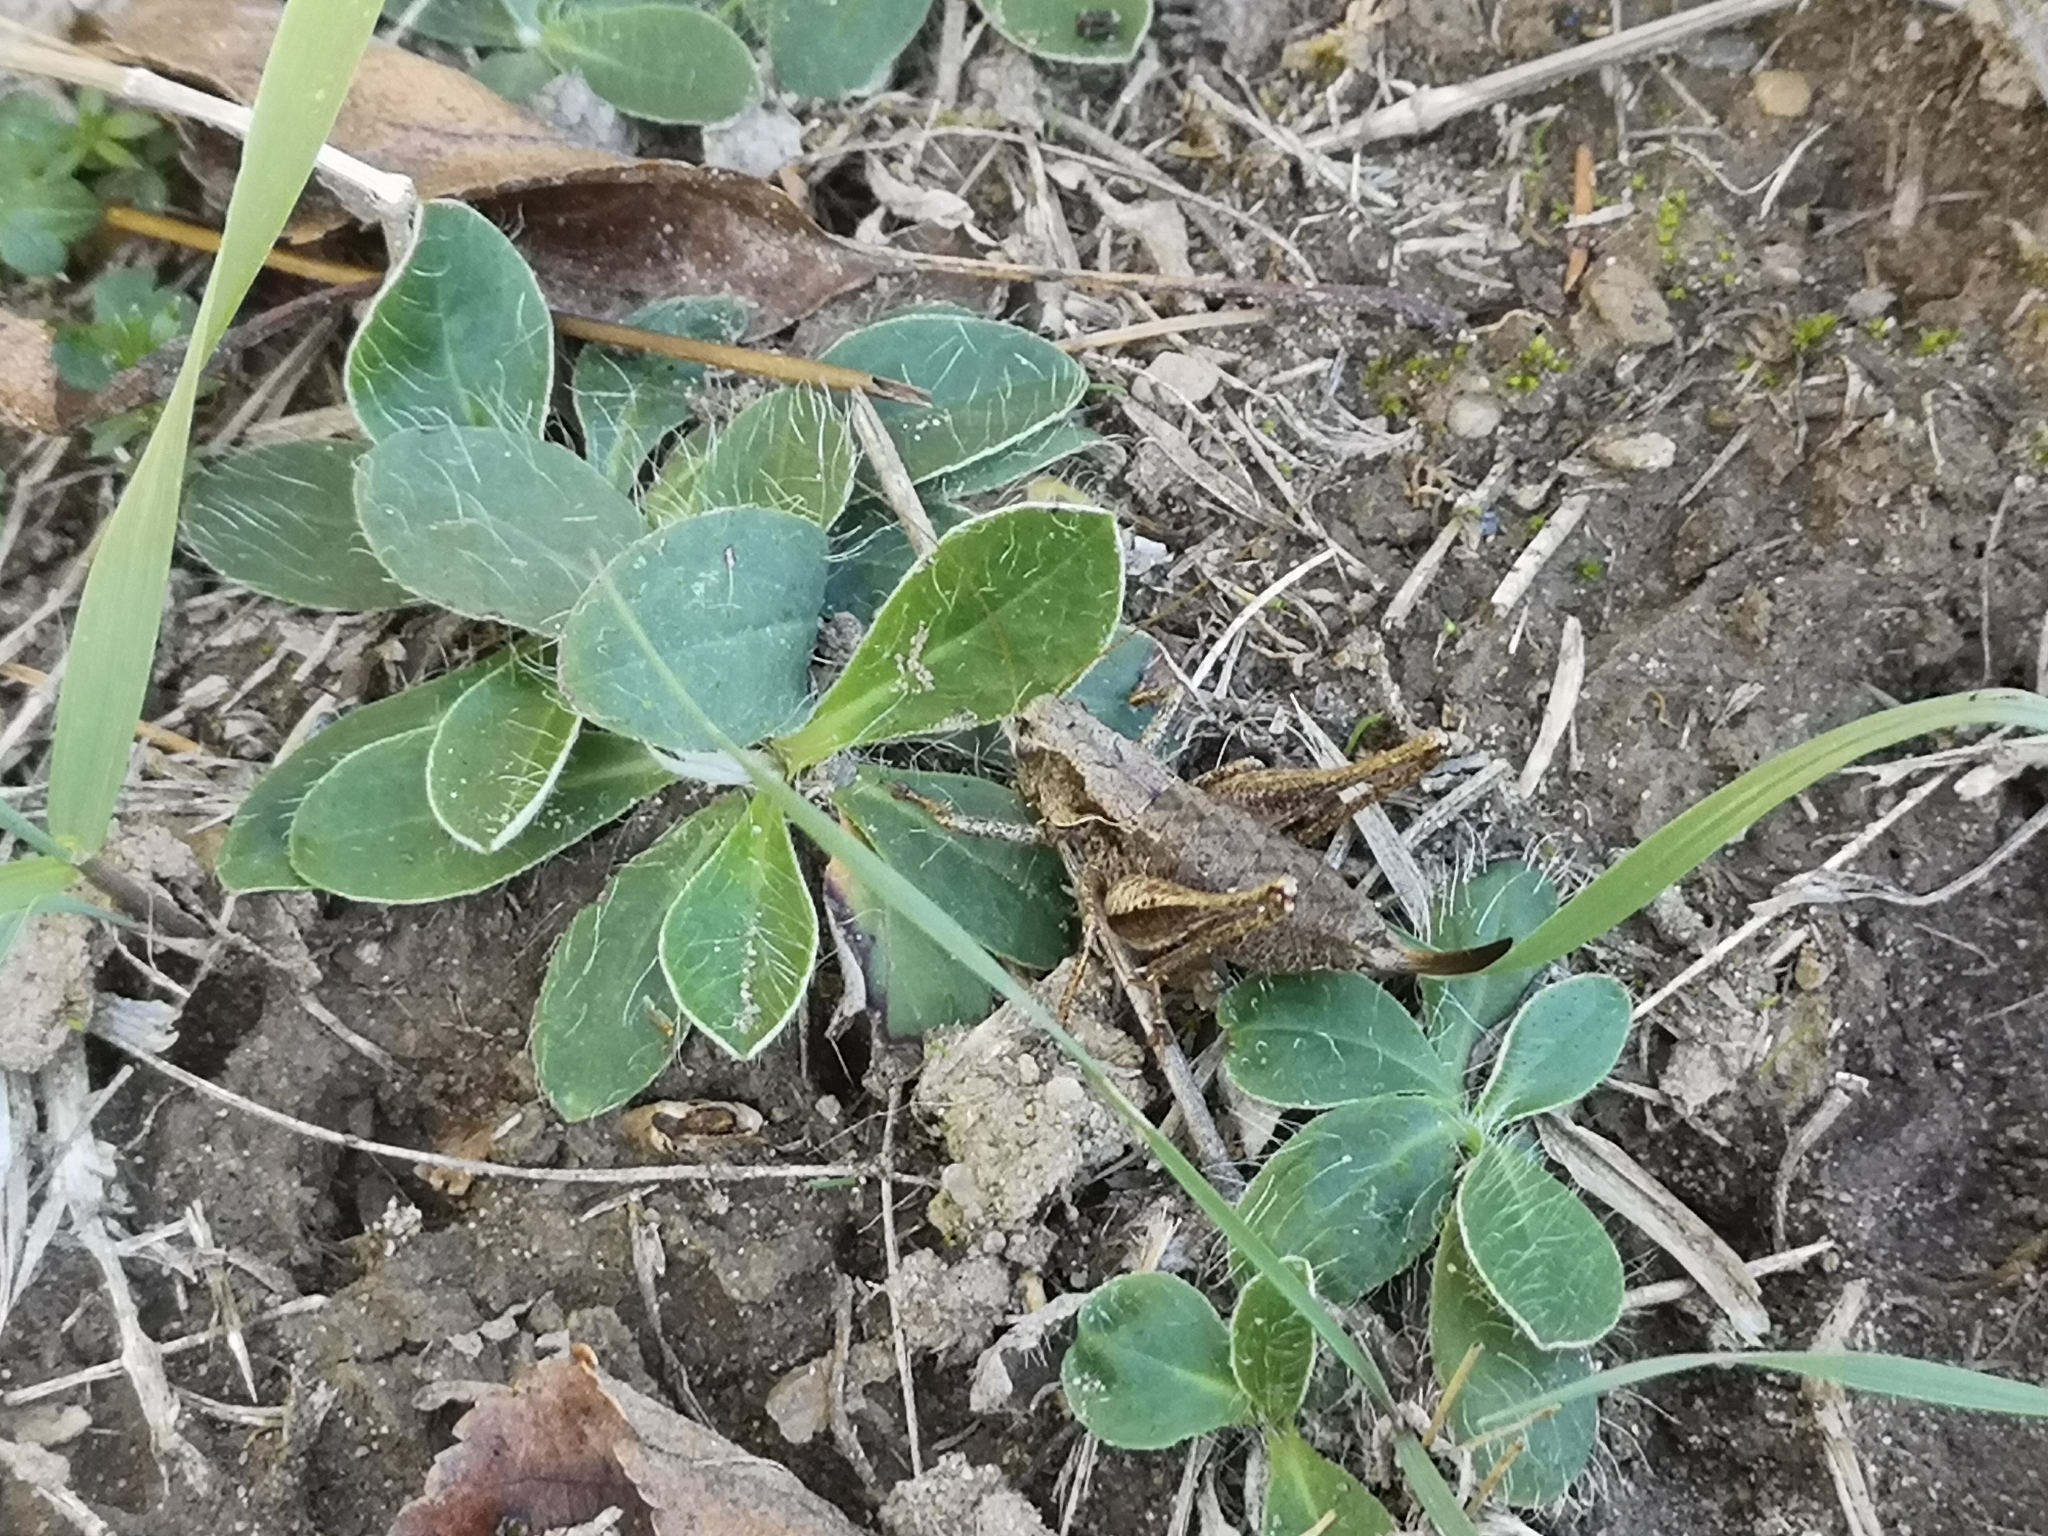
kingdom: Animalia
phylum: Arthropoda
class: Insecta
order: Orthoptera
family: Tettigoniidae
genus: Pholidoptera
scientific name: Pholidoptera griseoaptera
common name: Dark bush-cricket
